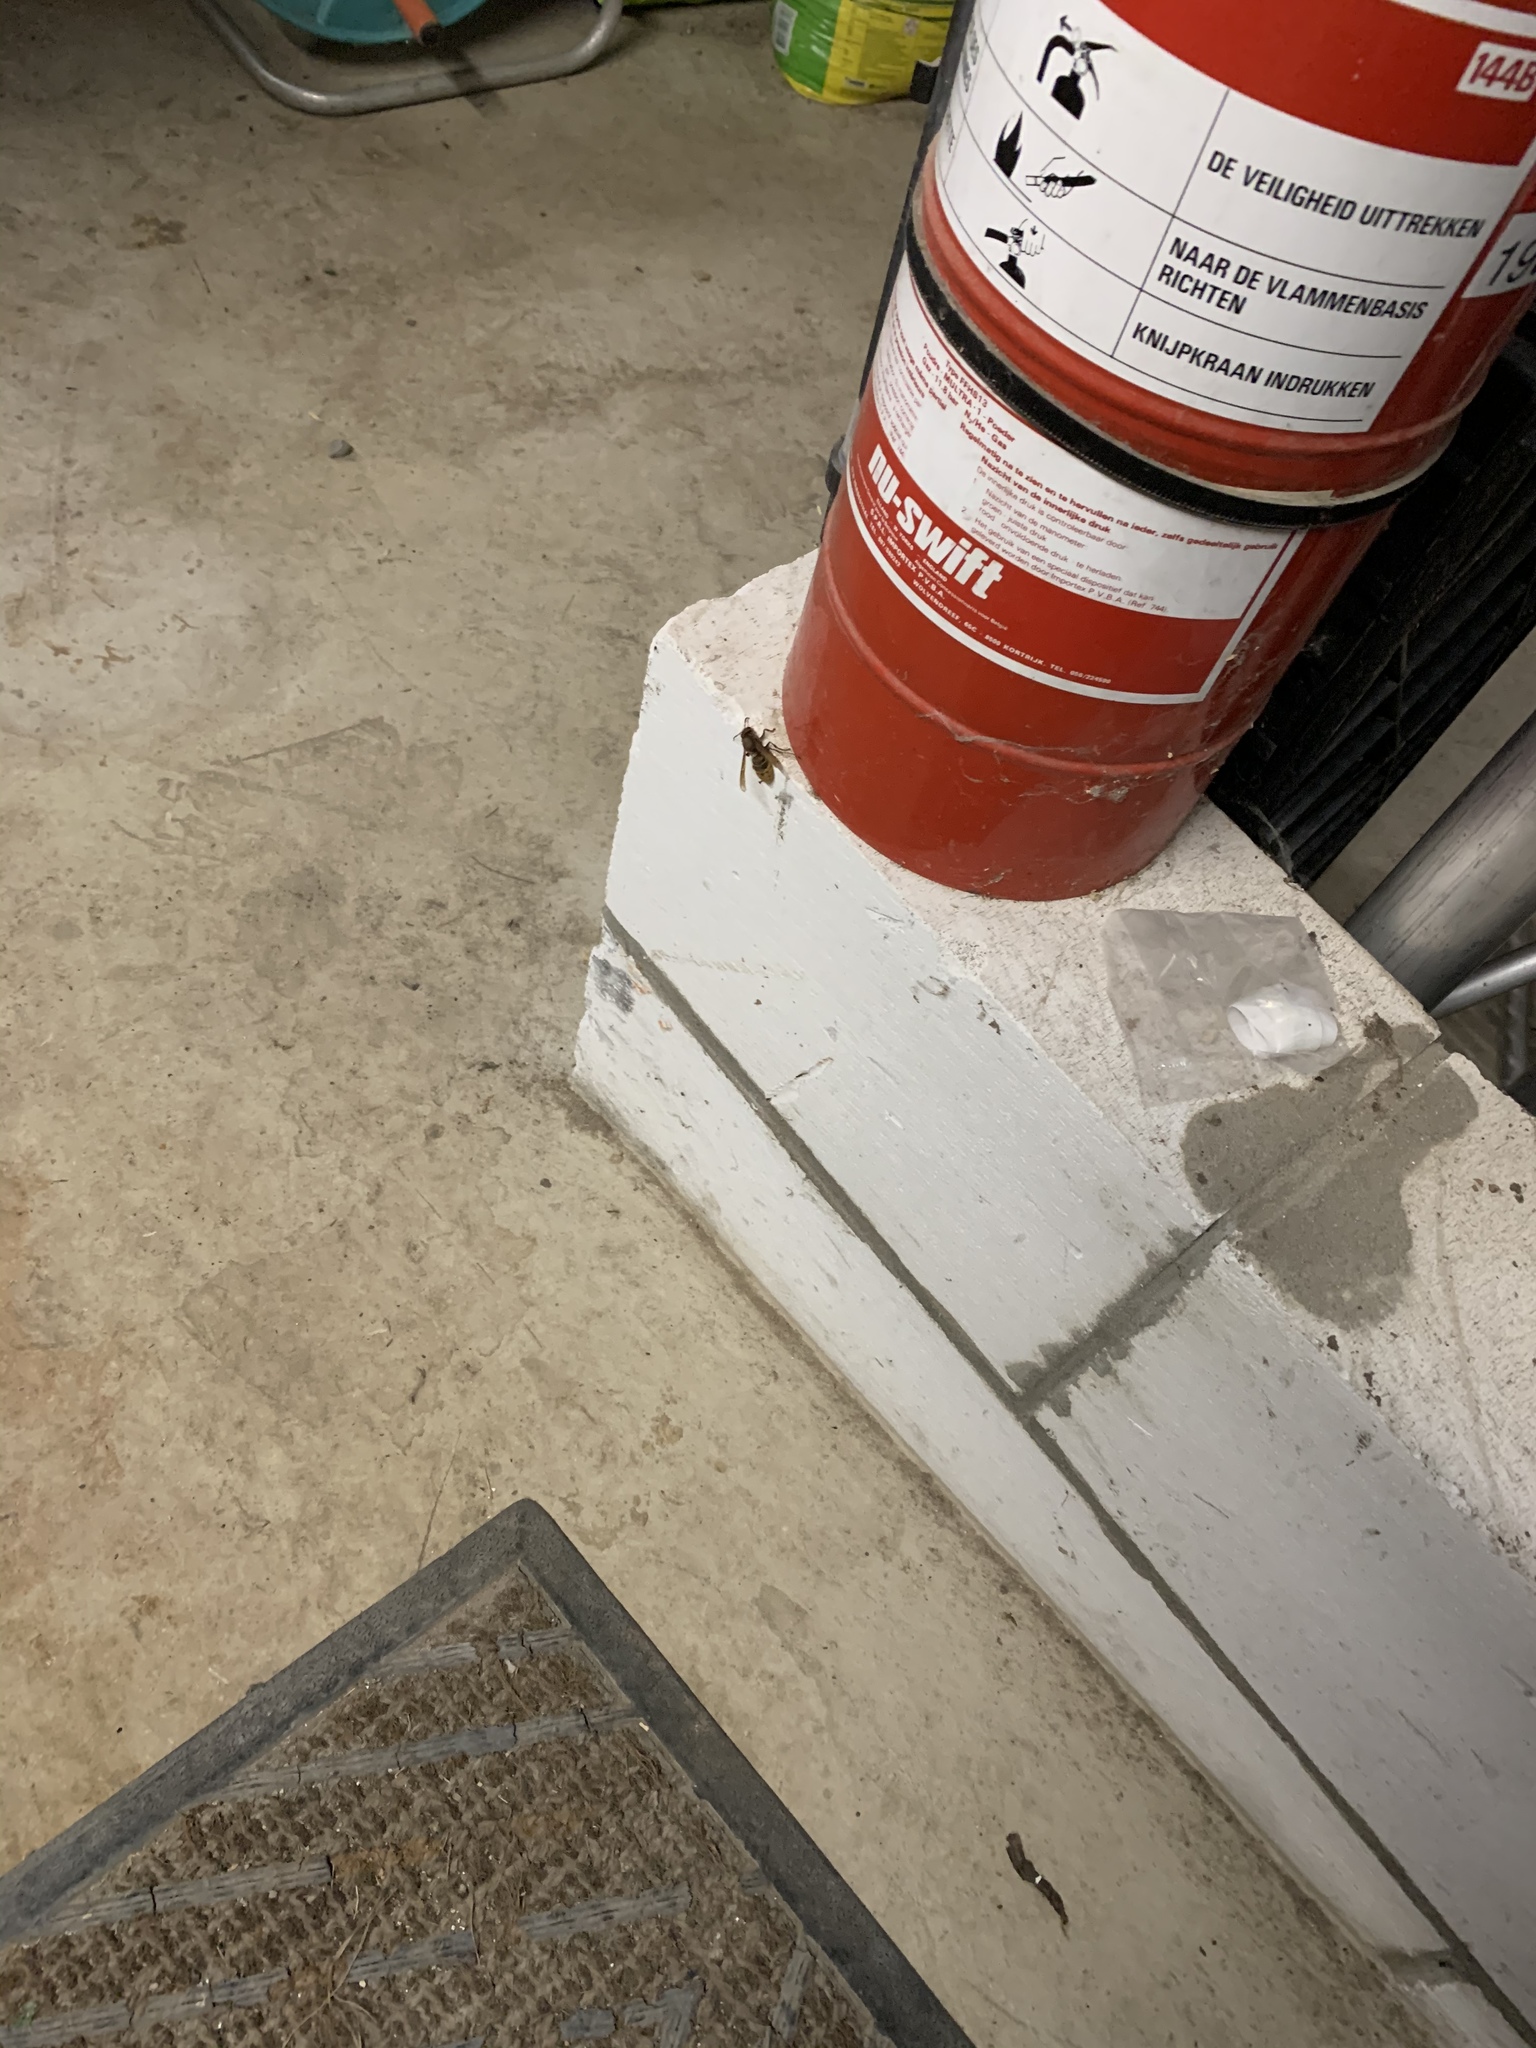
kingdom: Animalia
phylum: Arthropoda
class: Insecta
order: Hymenoptera
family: Vespidae
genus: Vespa
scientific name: Vespa crabro
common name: Hornet
